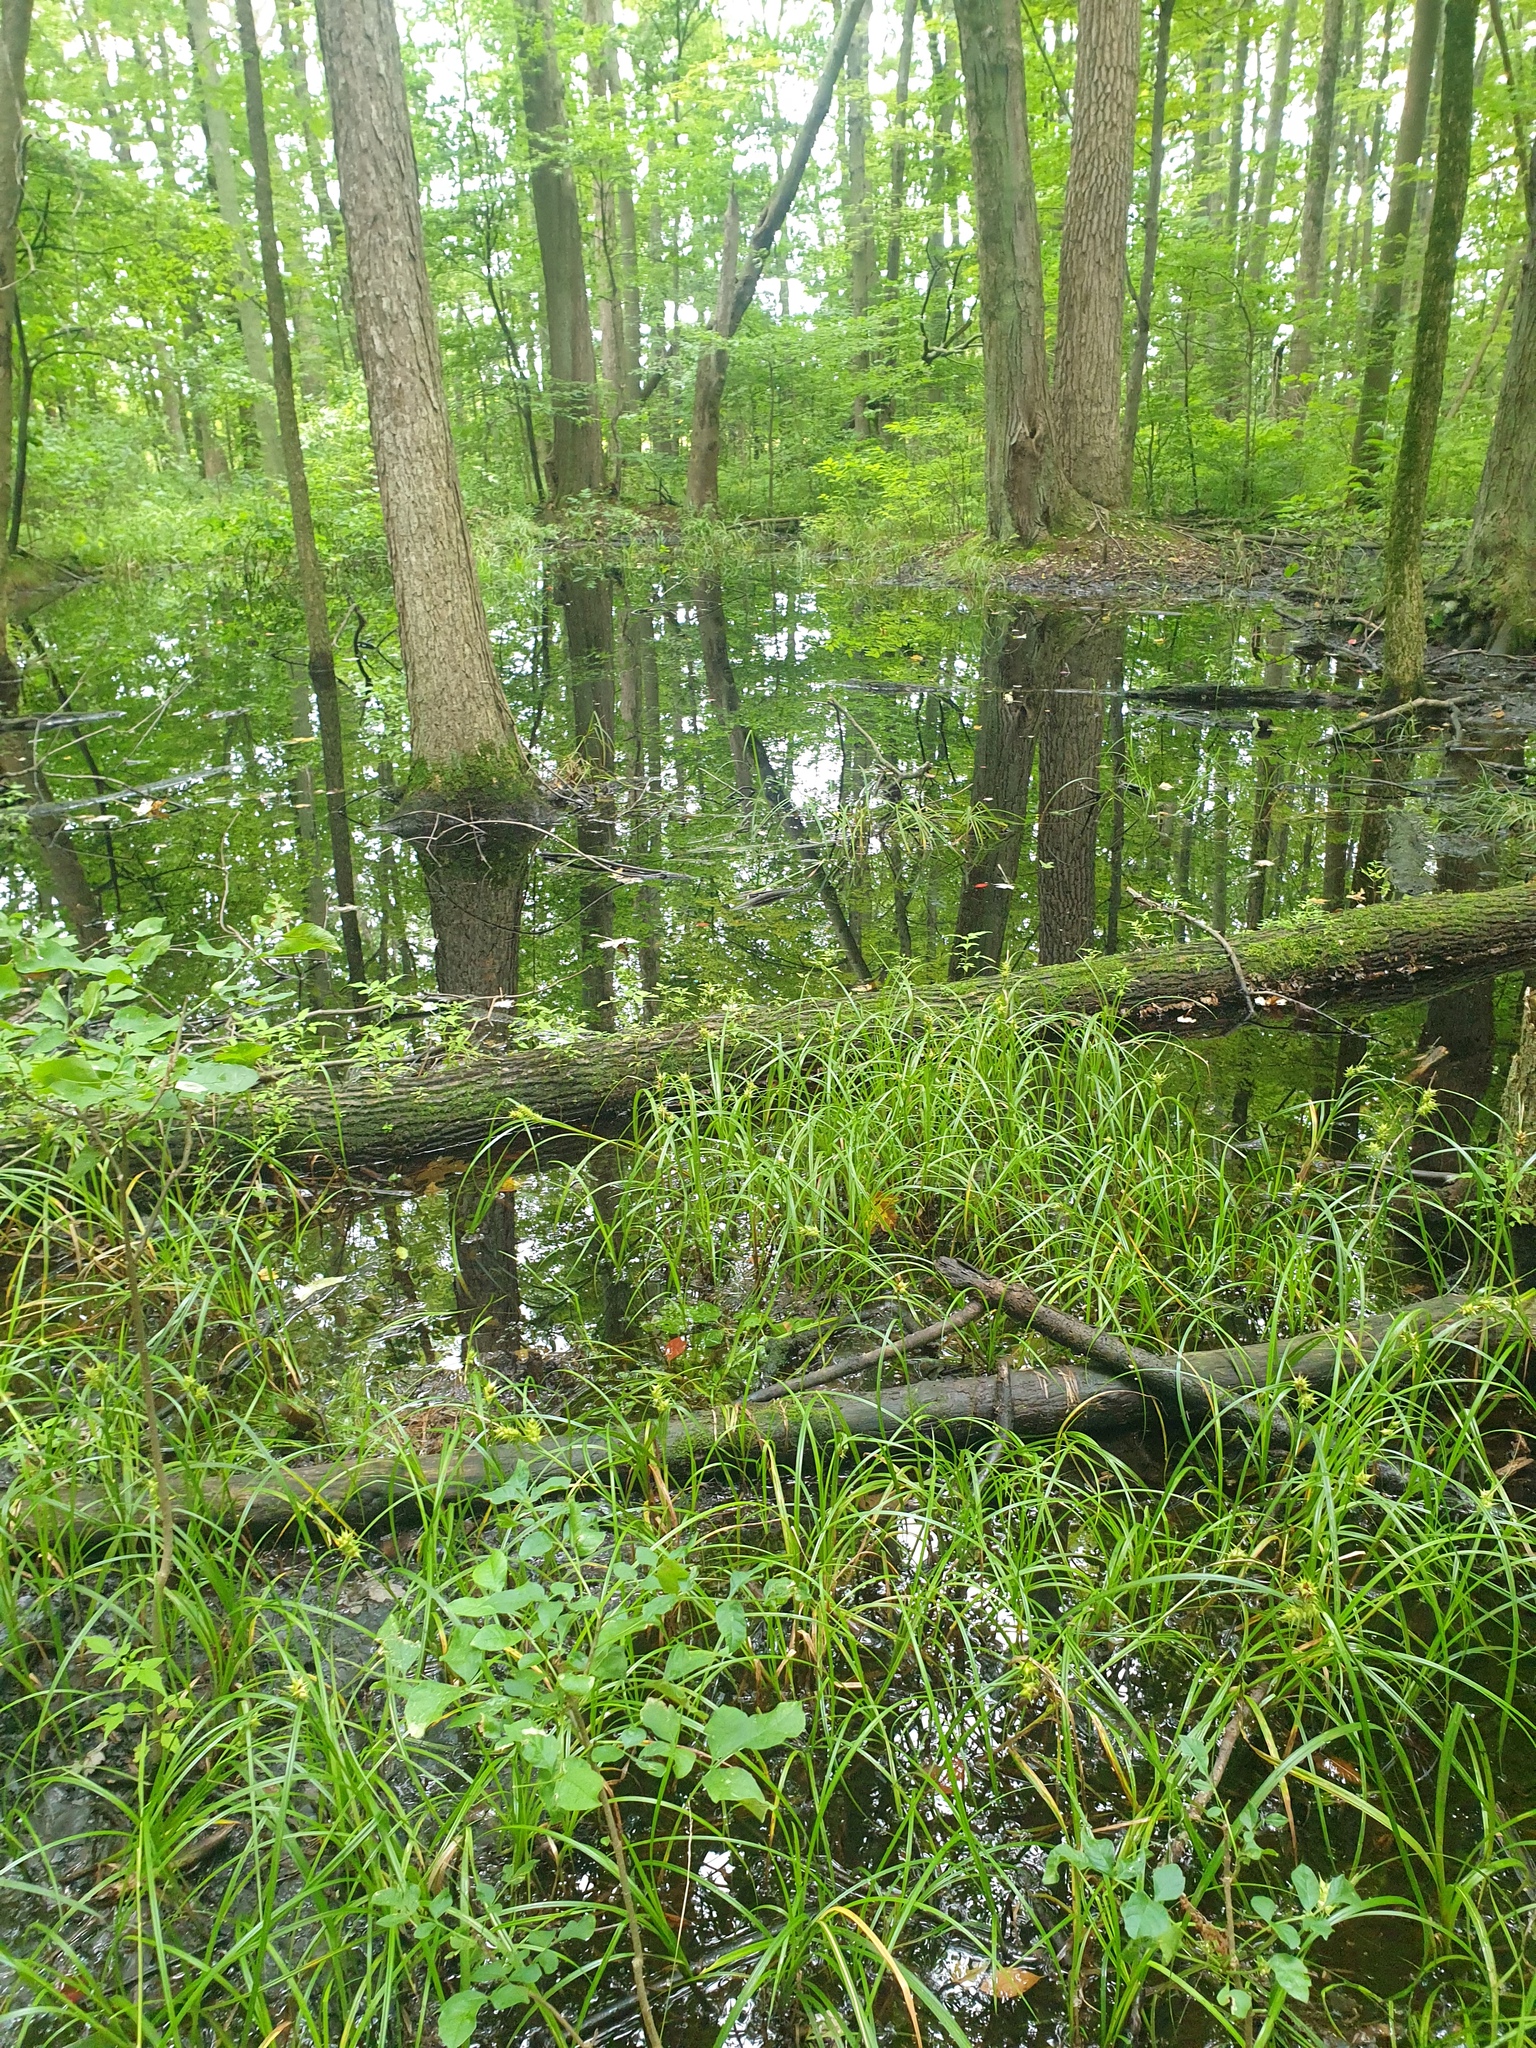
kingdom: Plantae
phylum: Tracheophyta
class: Liliopsida
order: Poales
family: Cyperaceae
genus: Carex
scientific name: Carex lupuliformis
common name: False hop sedge
